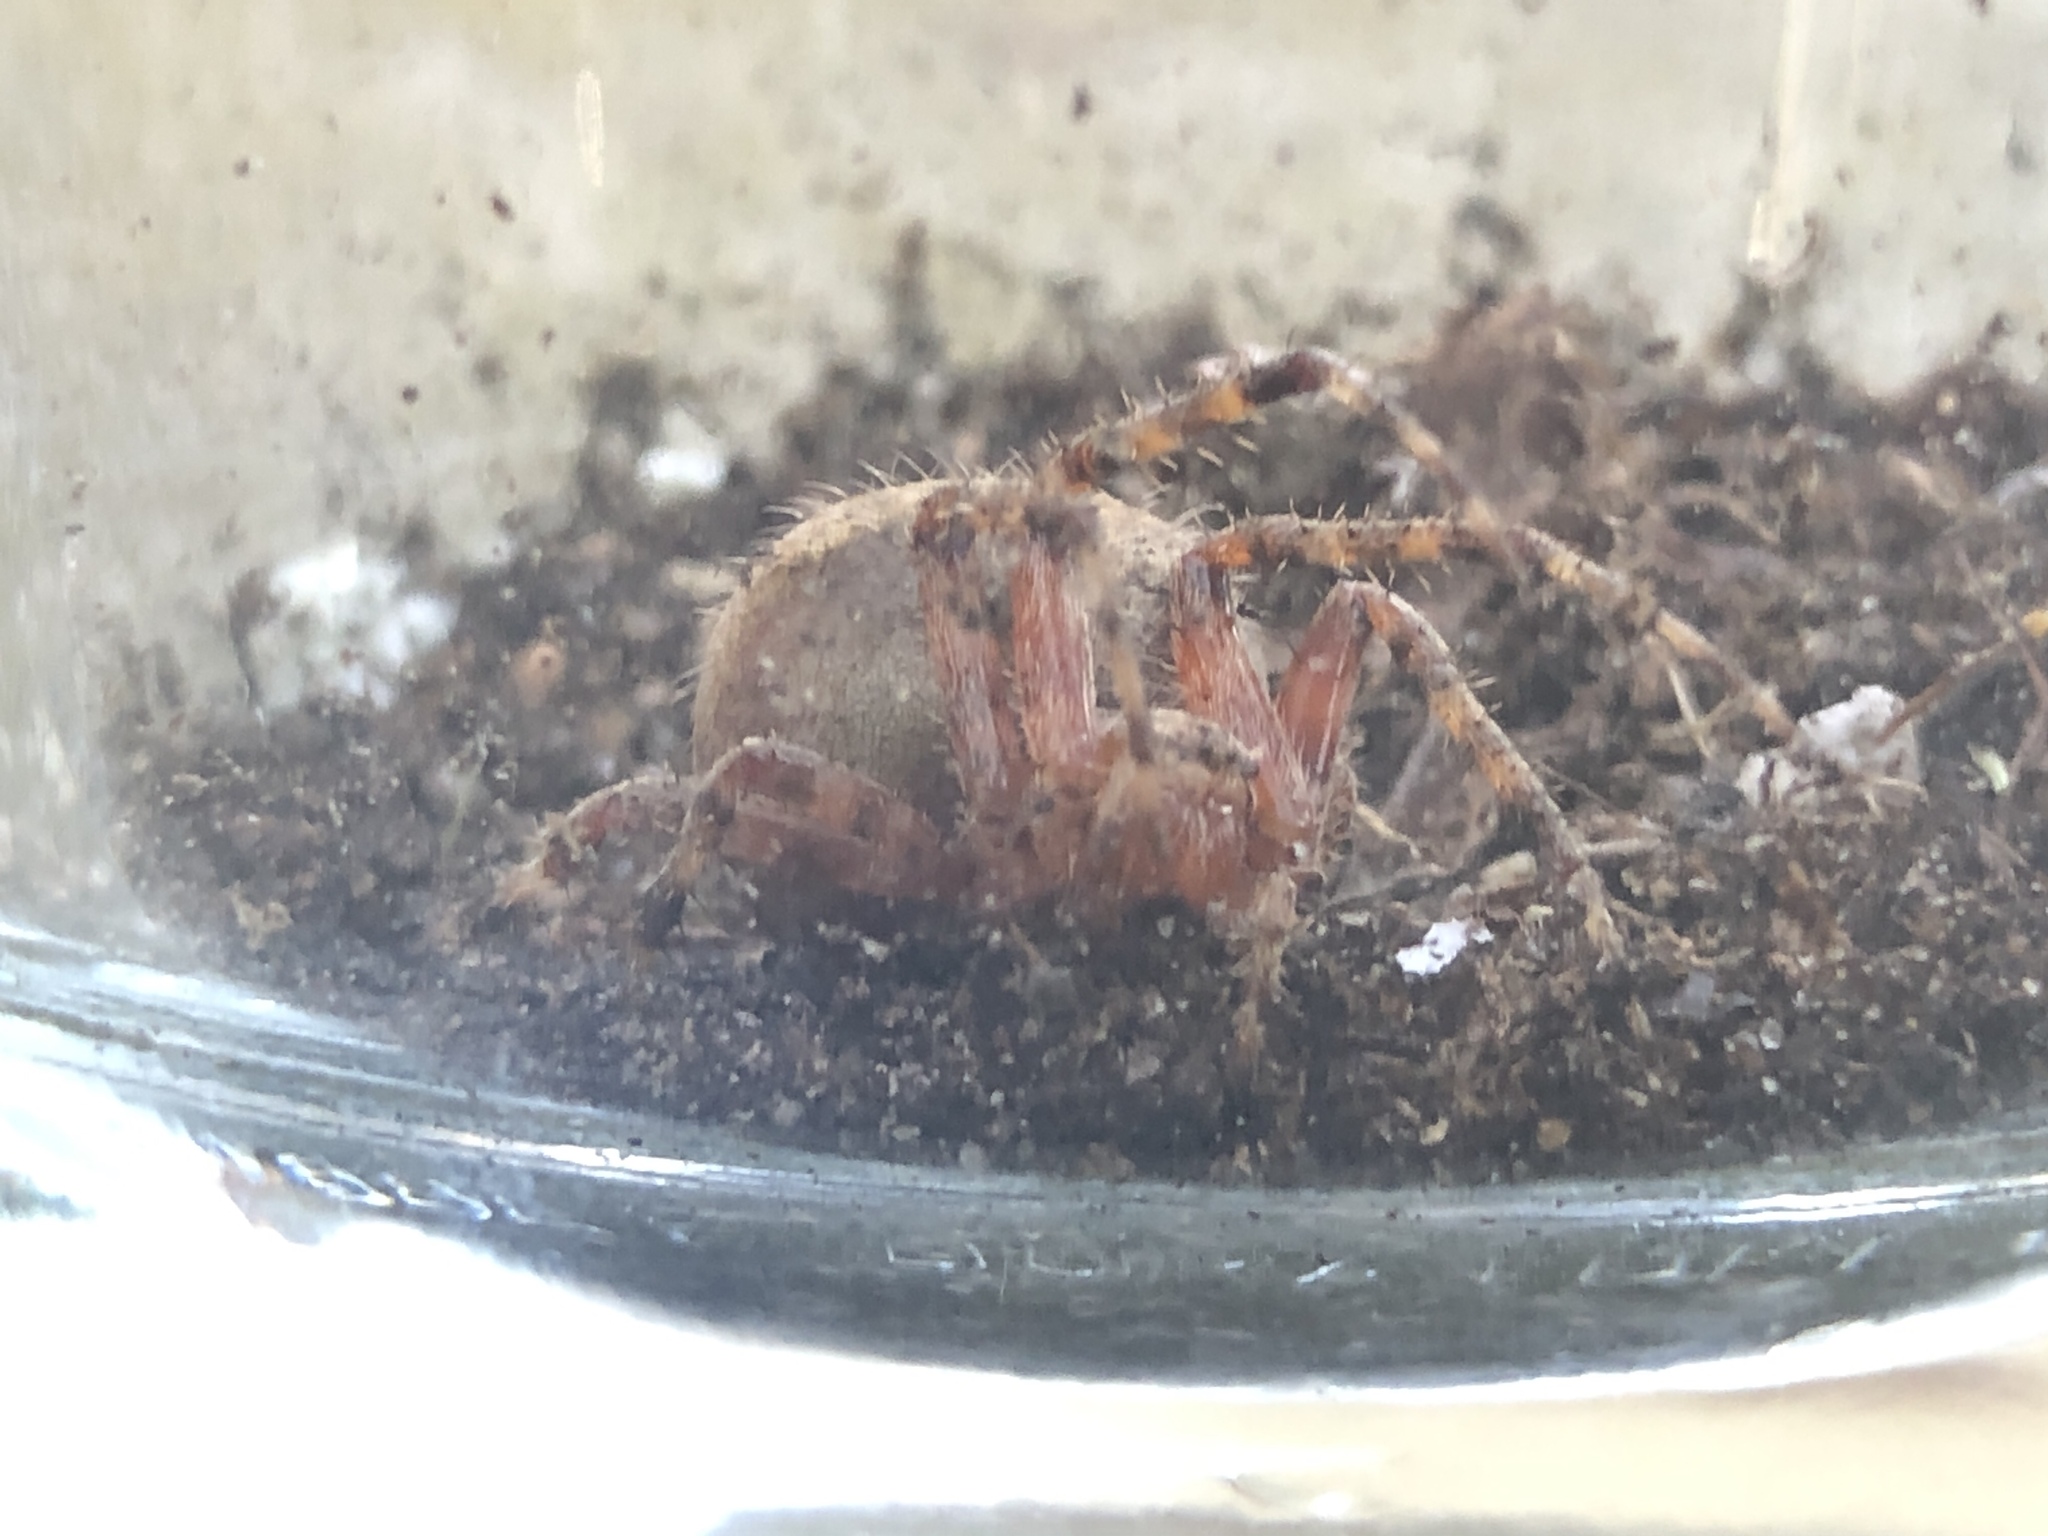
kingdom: Animalia
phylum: Arthropoda
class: Arachnida
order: Araneae
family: Araneidae
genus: Neoscona
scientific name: Neoscona crucifera
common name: Spotted orbweaver
